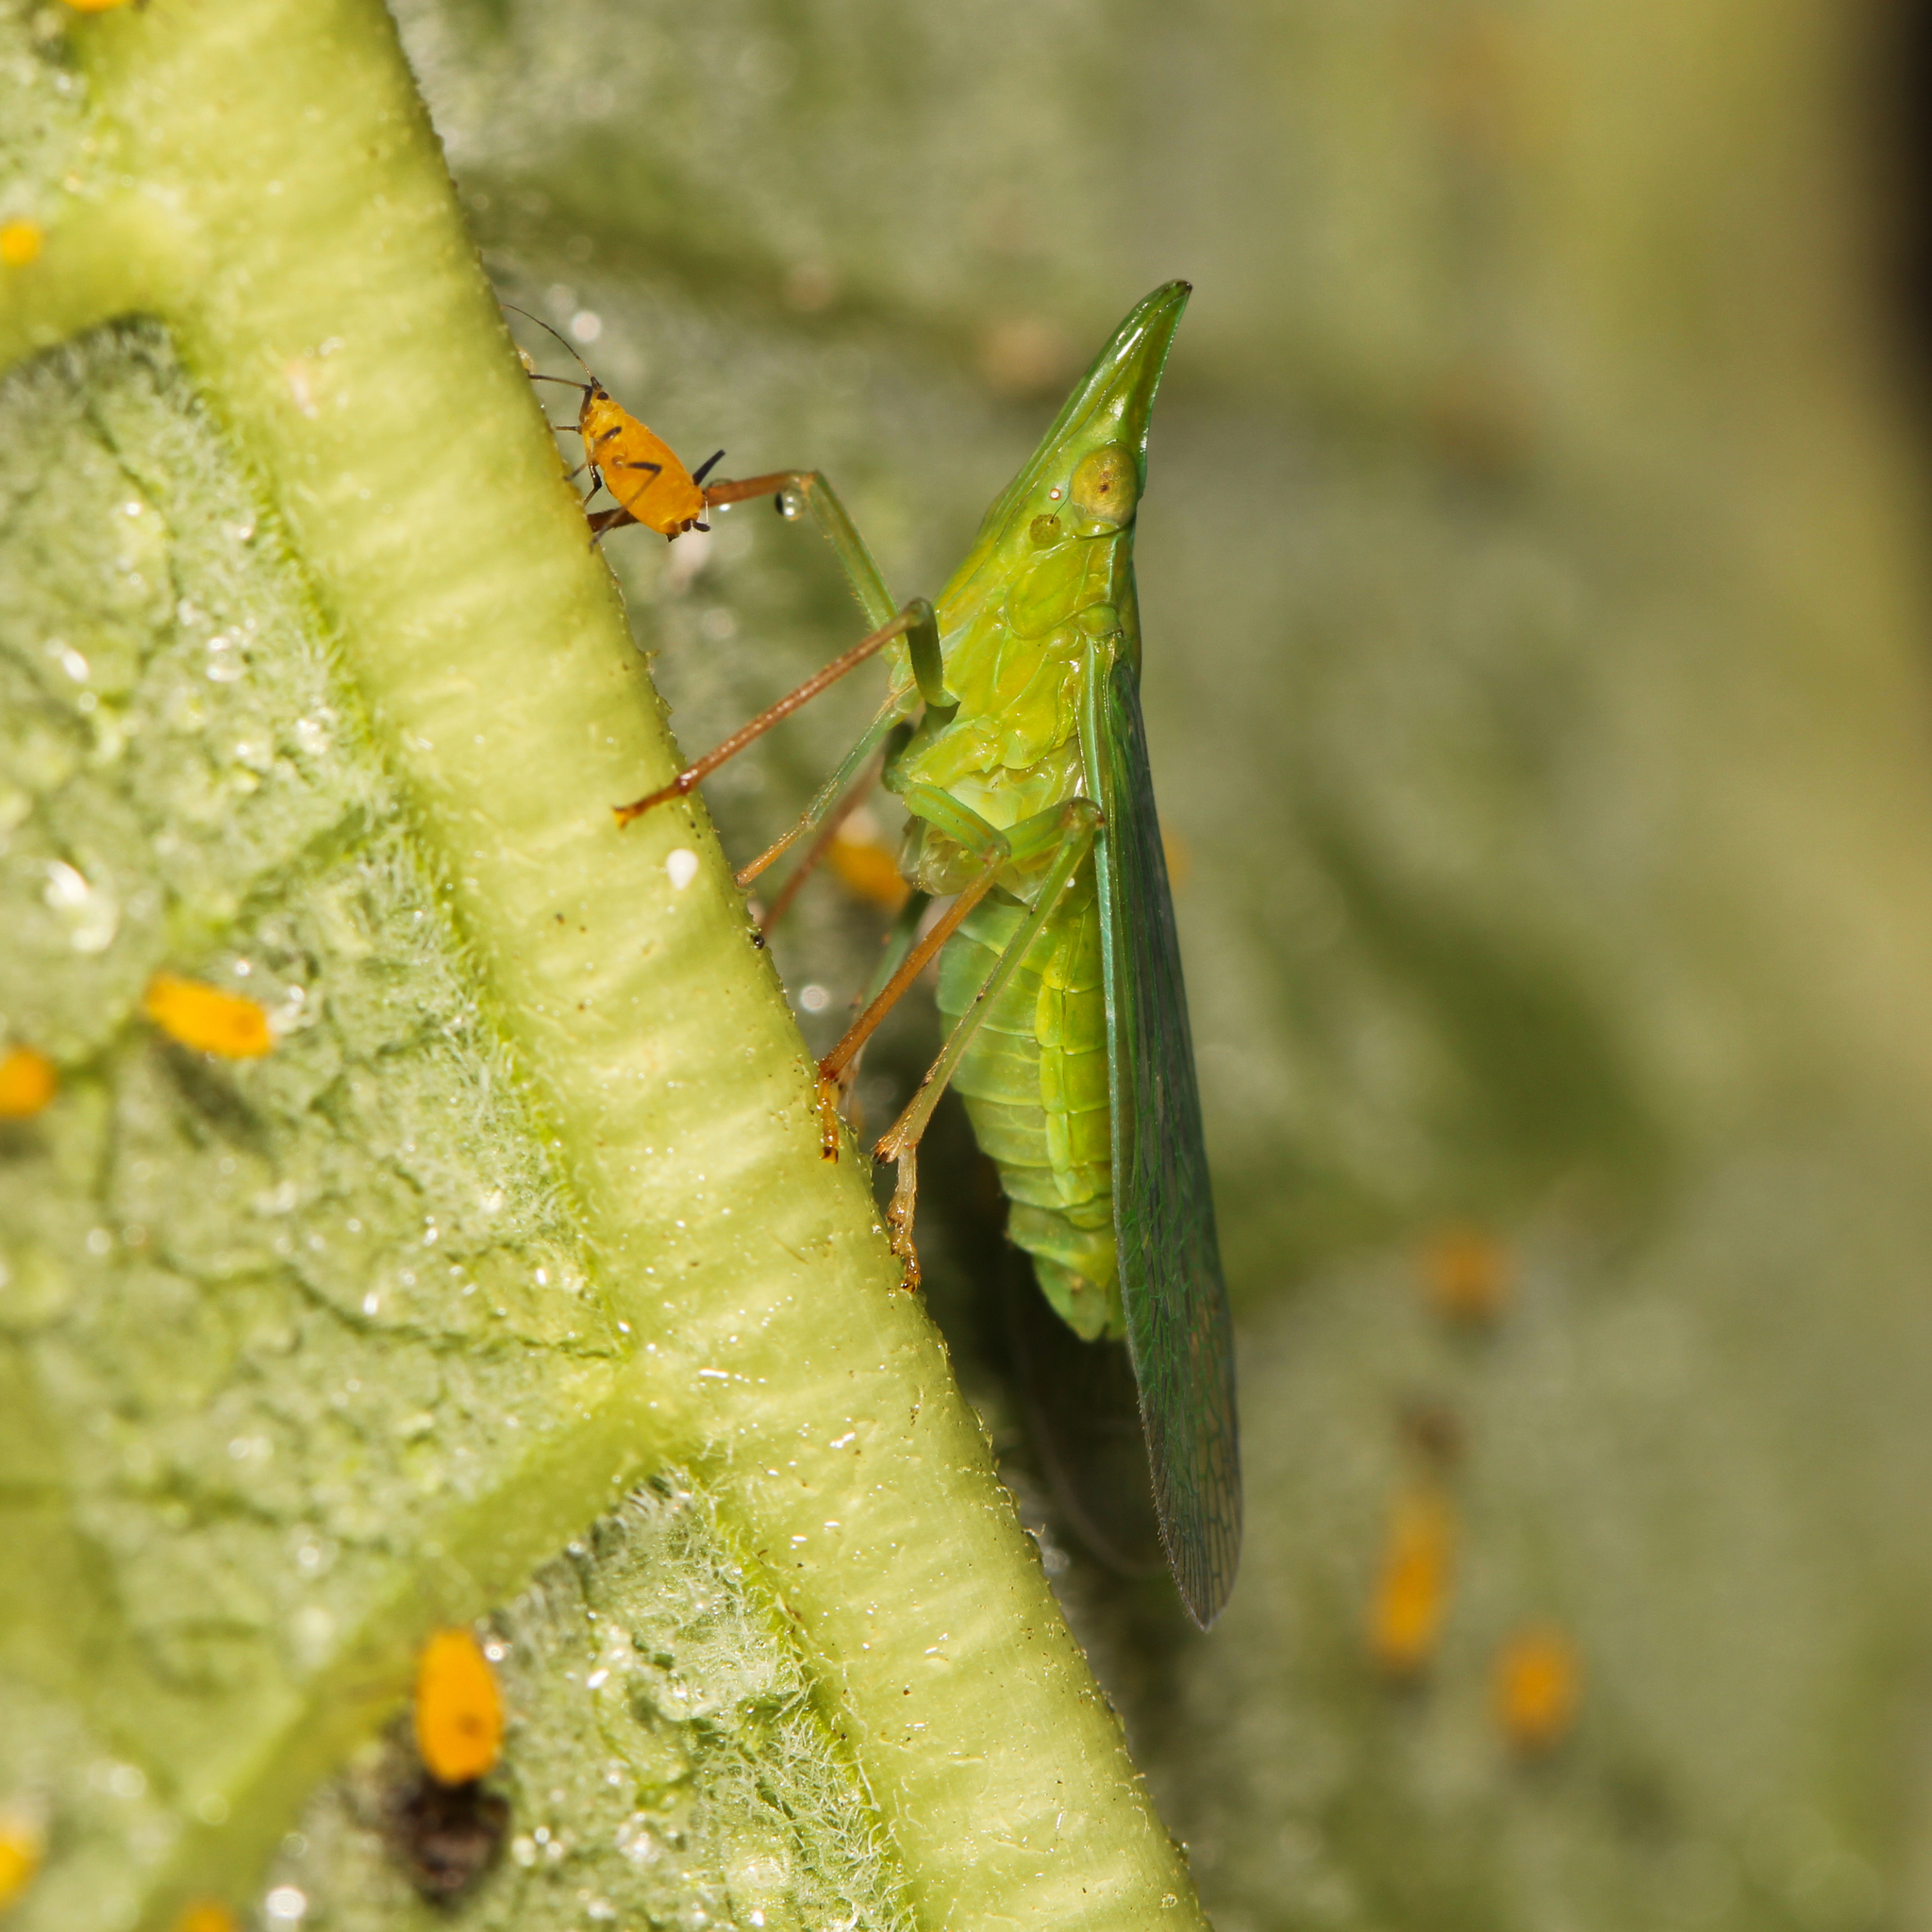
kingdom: Animalia
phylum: Arthropoda
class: Insecta
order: Hemiptera
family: Dictyopharidae
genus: Rhynchomitra
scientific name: Rhynchomitra microrhina
